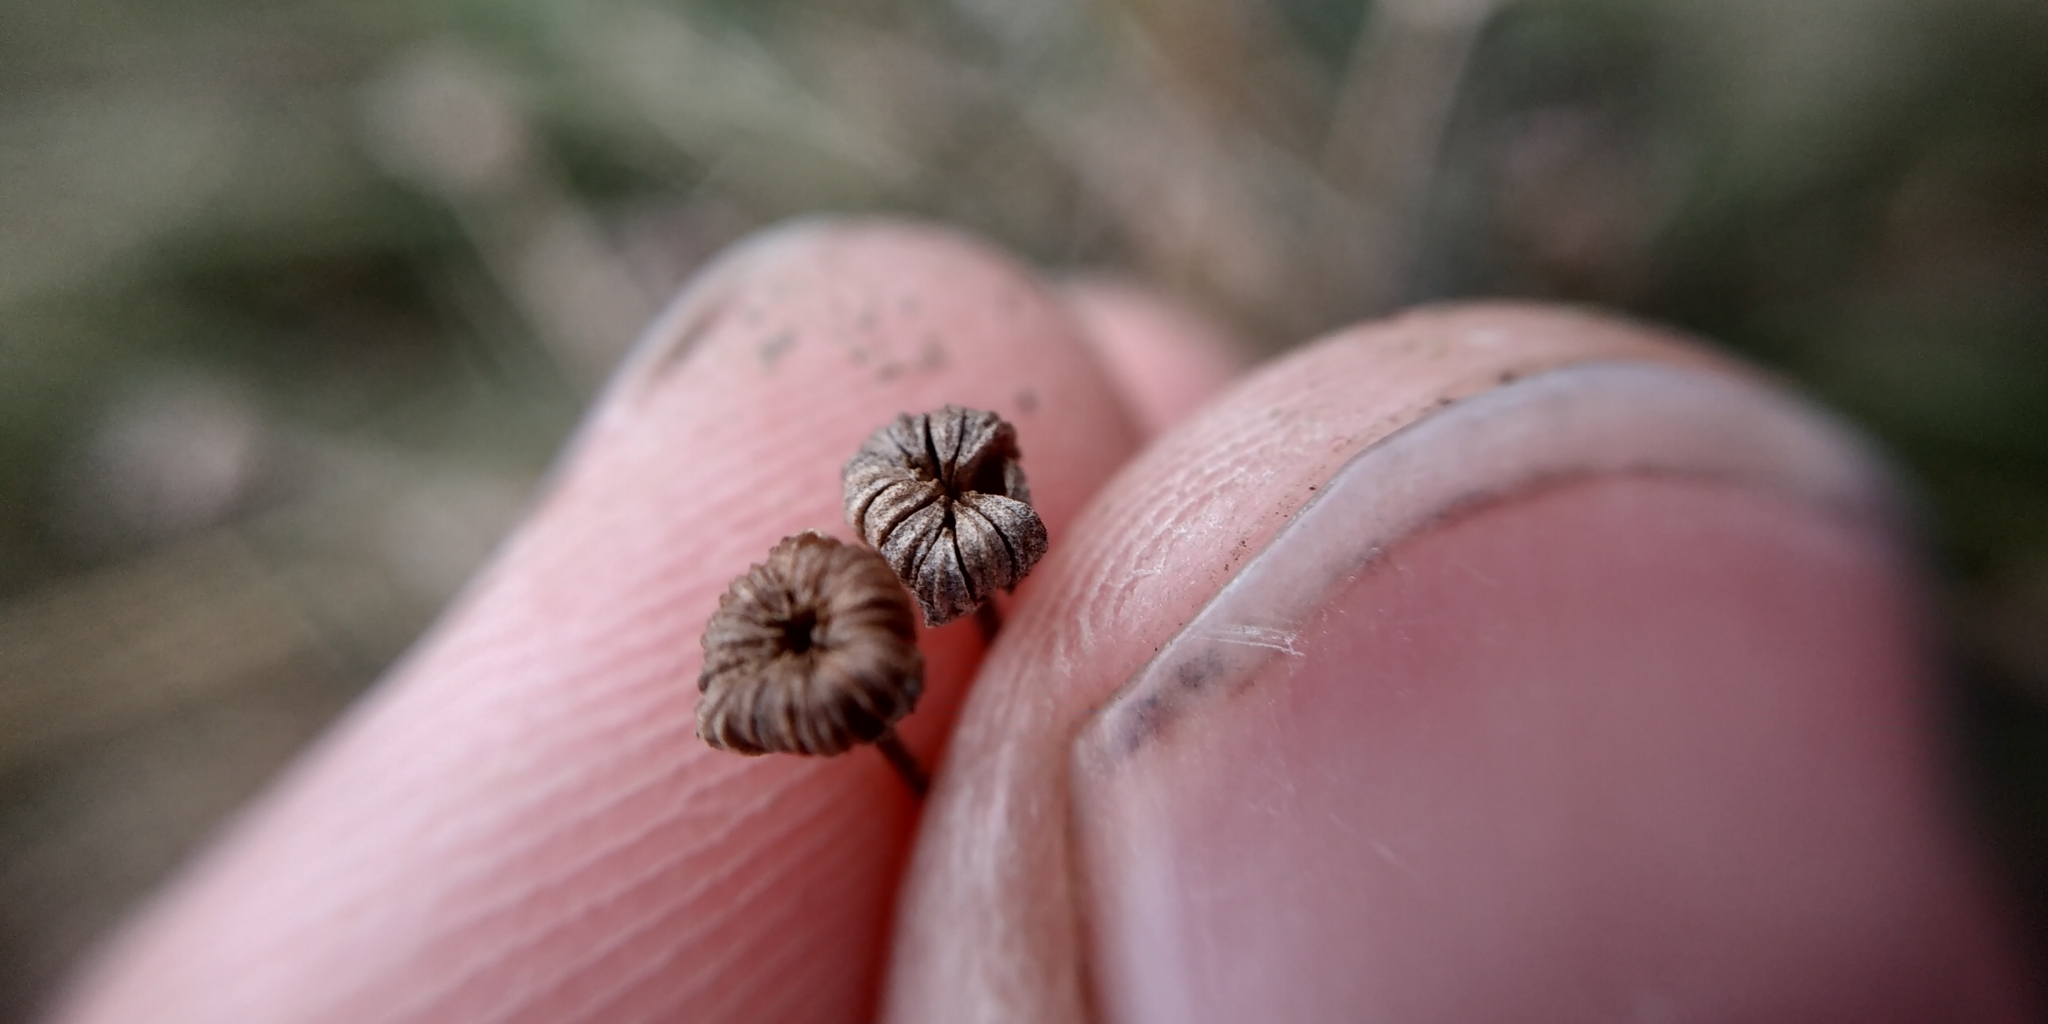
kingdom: Plantae
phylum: Tracheophyta
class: Liliopsida
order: Alismatales
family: Alismataceae
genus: Alisma
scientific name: Alisma plantago-aquatica
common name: Water-plantain
